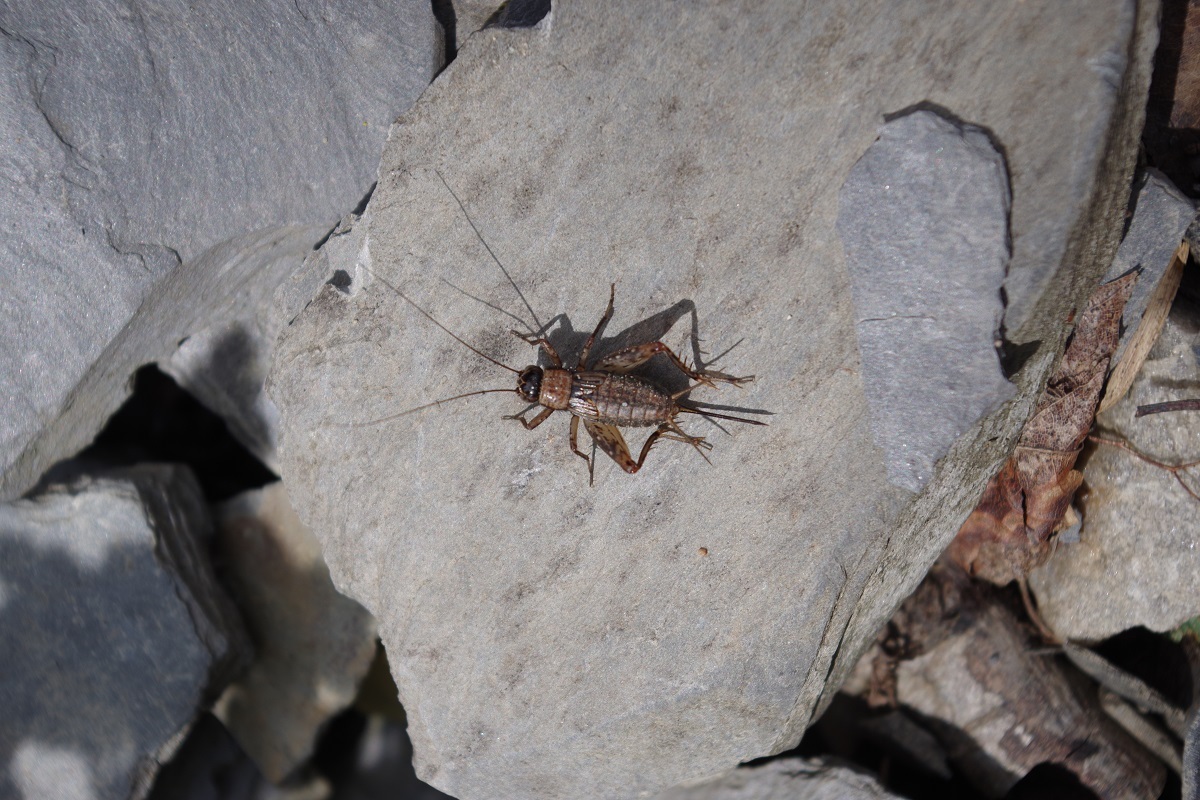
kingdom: Animalia
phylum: Arthropoda
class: Insecta
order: Orthoptera
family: Trigonidiidae
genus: Nemobius
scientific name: Nemobius sylvestris
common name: Wood-cricket
